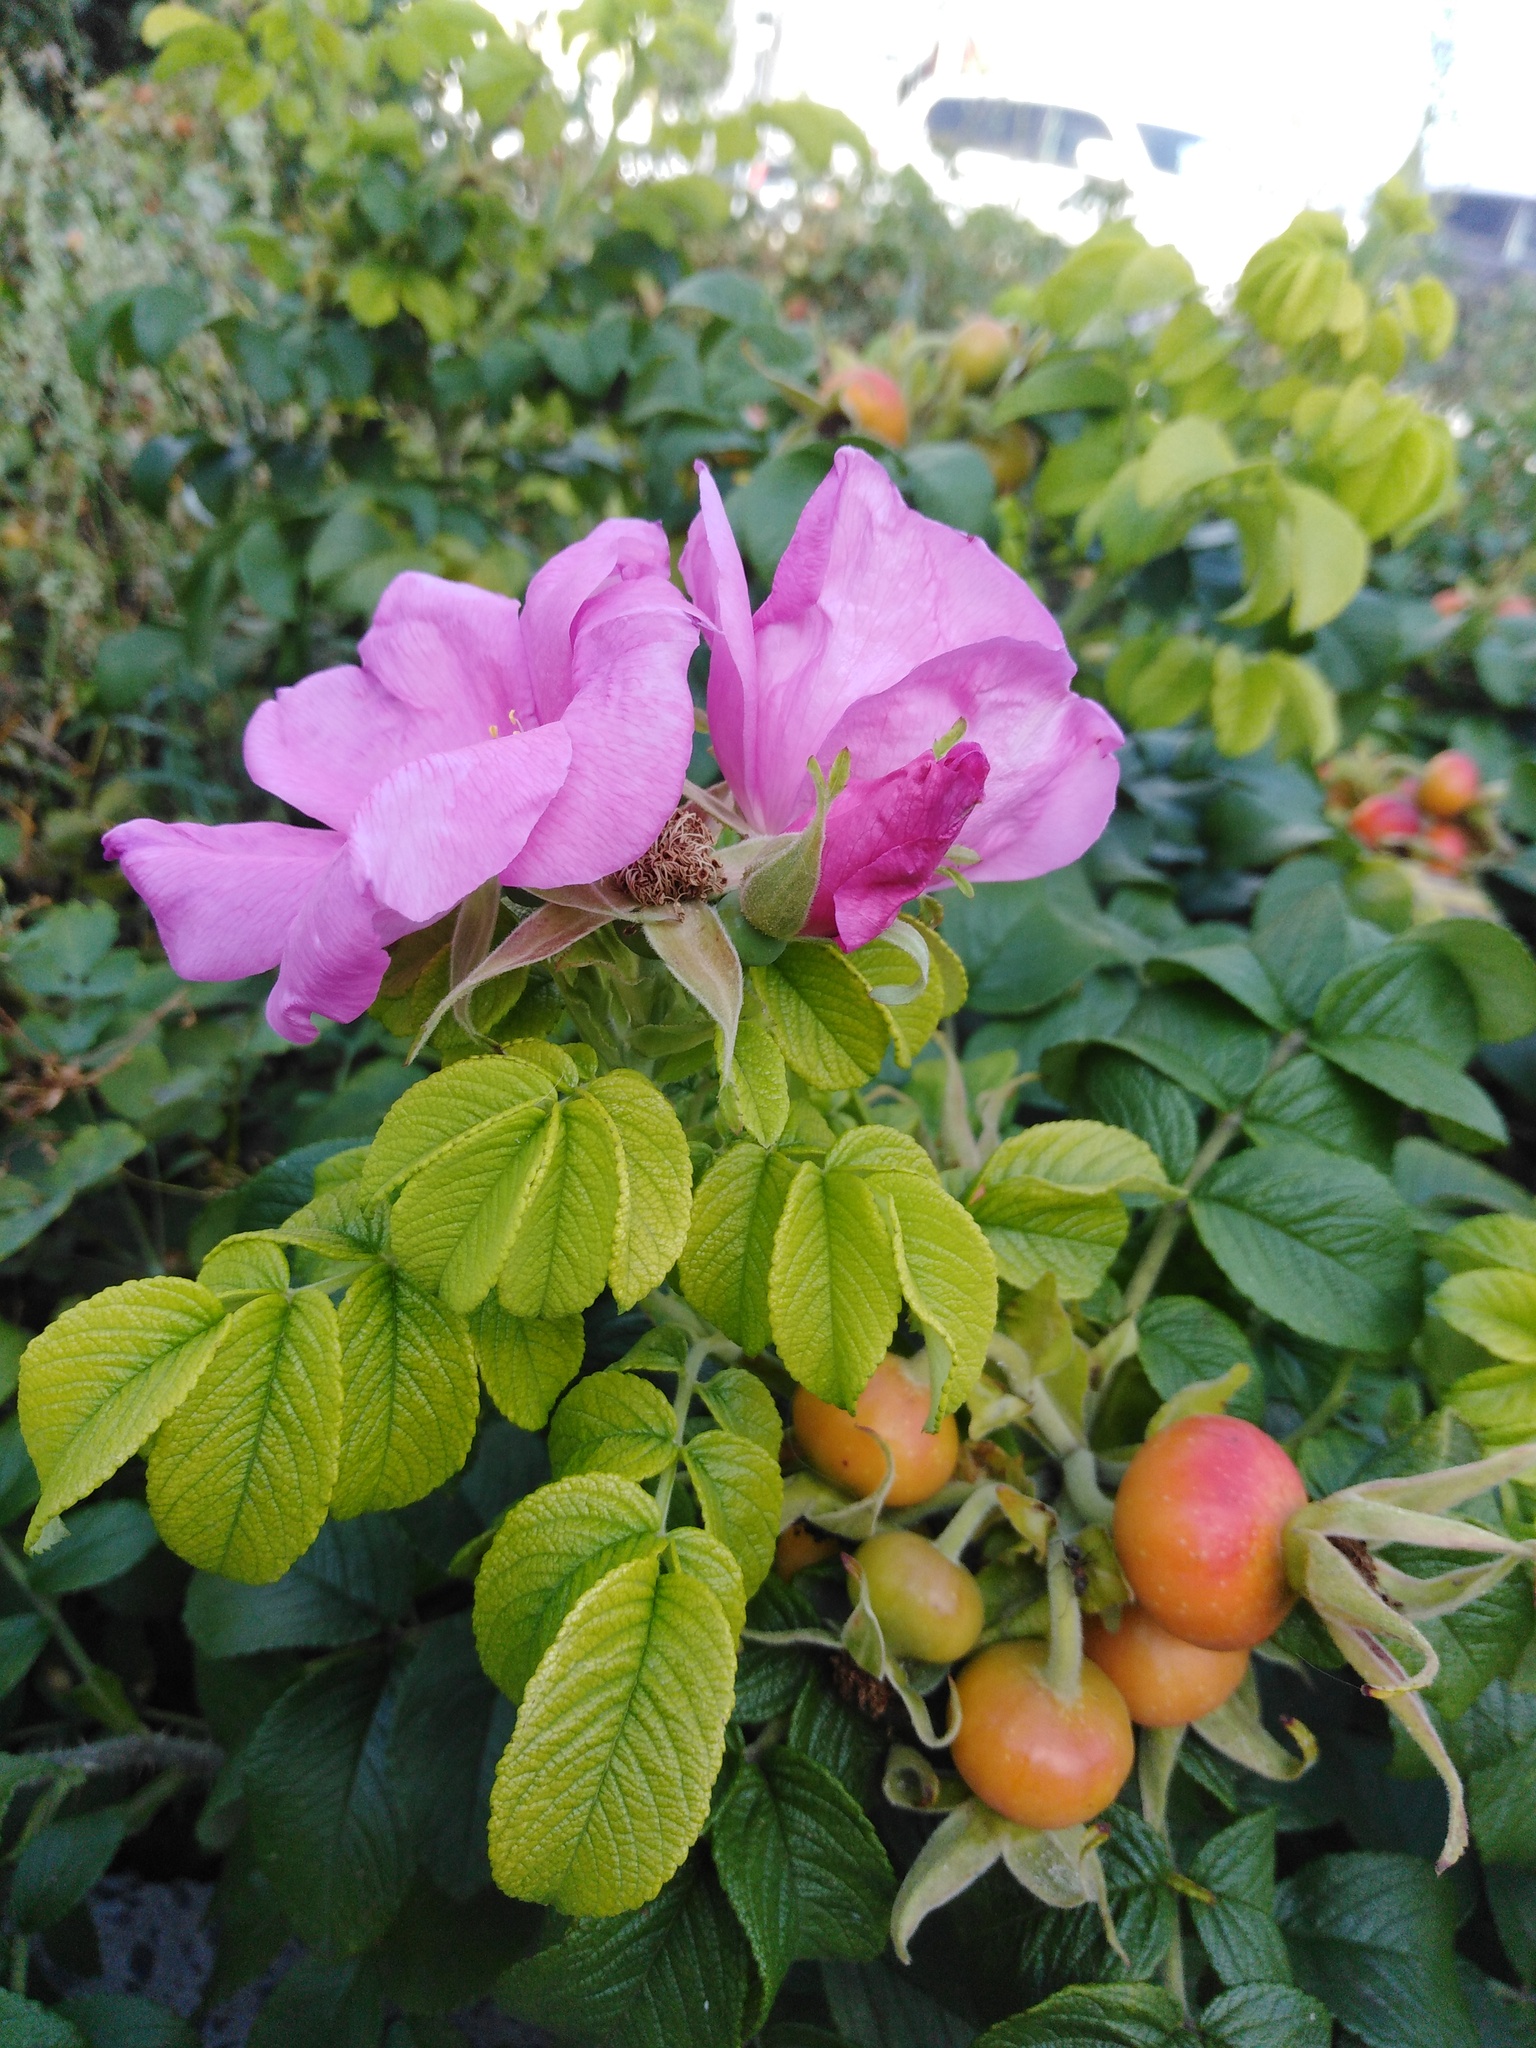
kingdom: Plantae
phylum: Tracheophyta
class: Magnoliopsida
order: Rosales
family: Rosaceae
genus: Rosa
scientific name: Rosa rugosa
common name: Japanese rose
